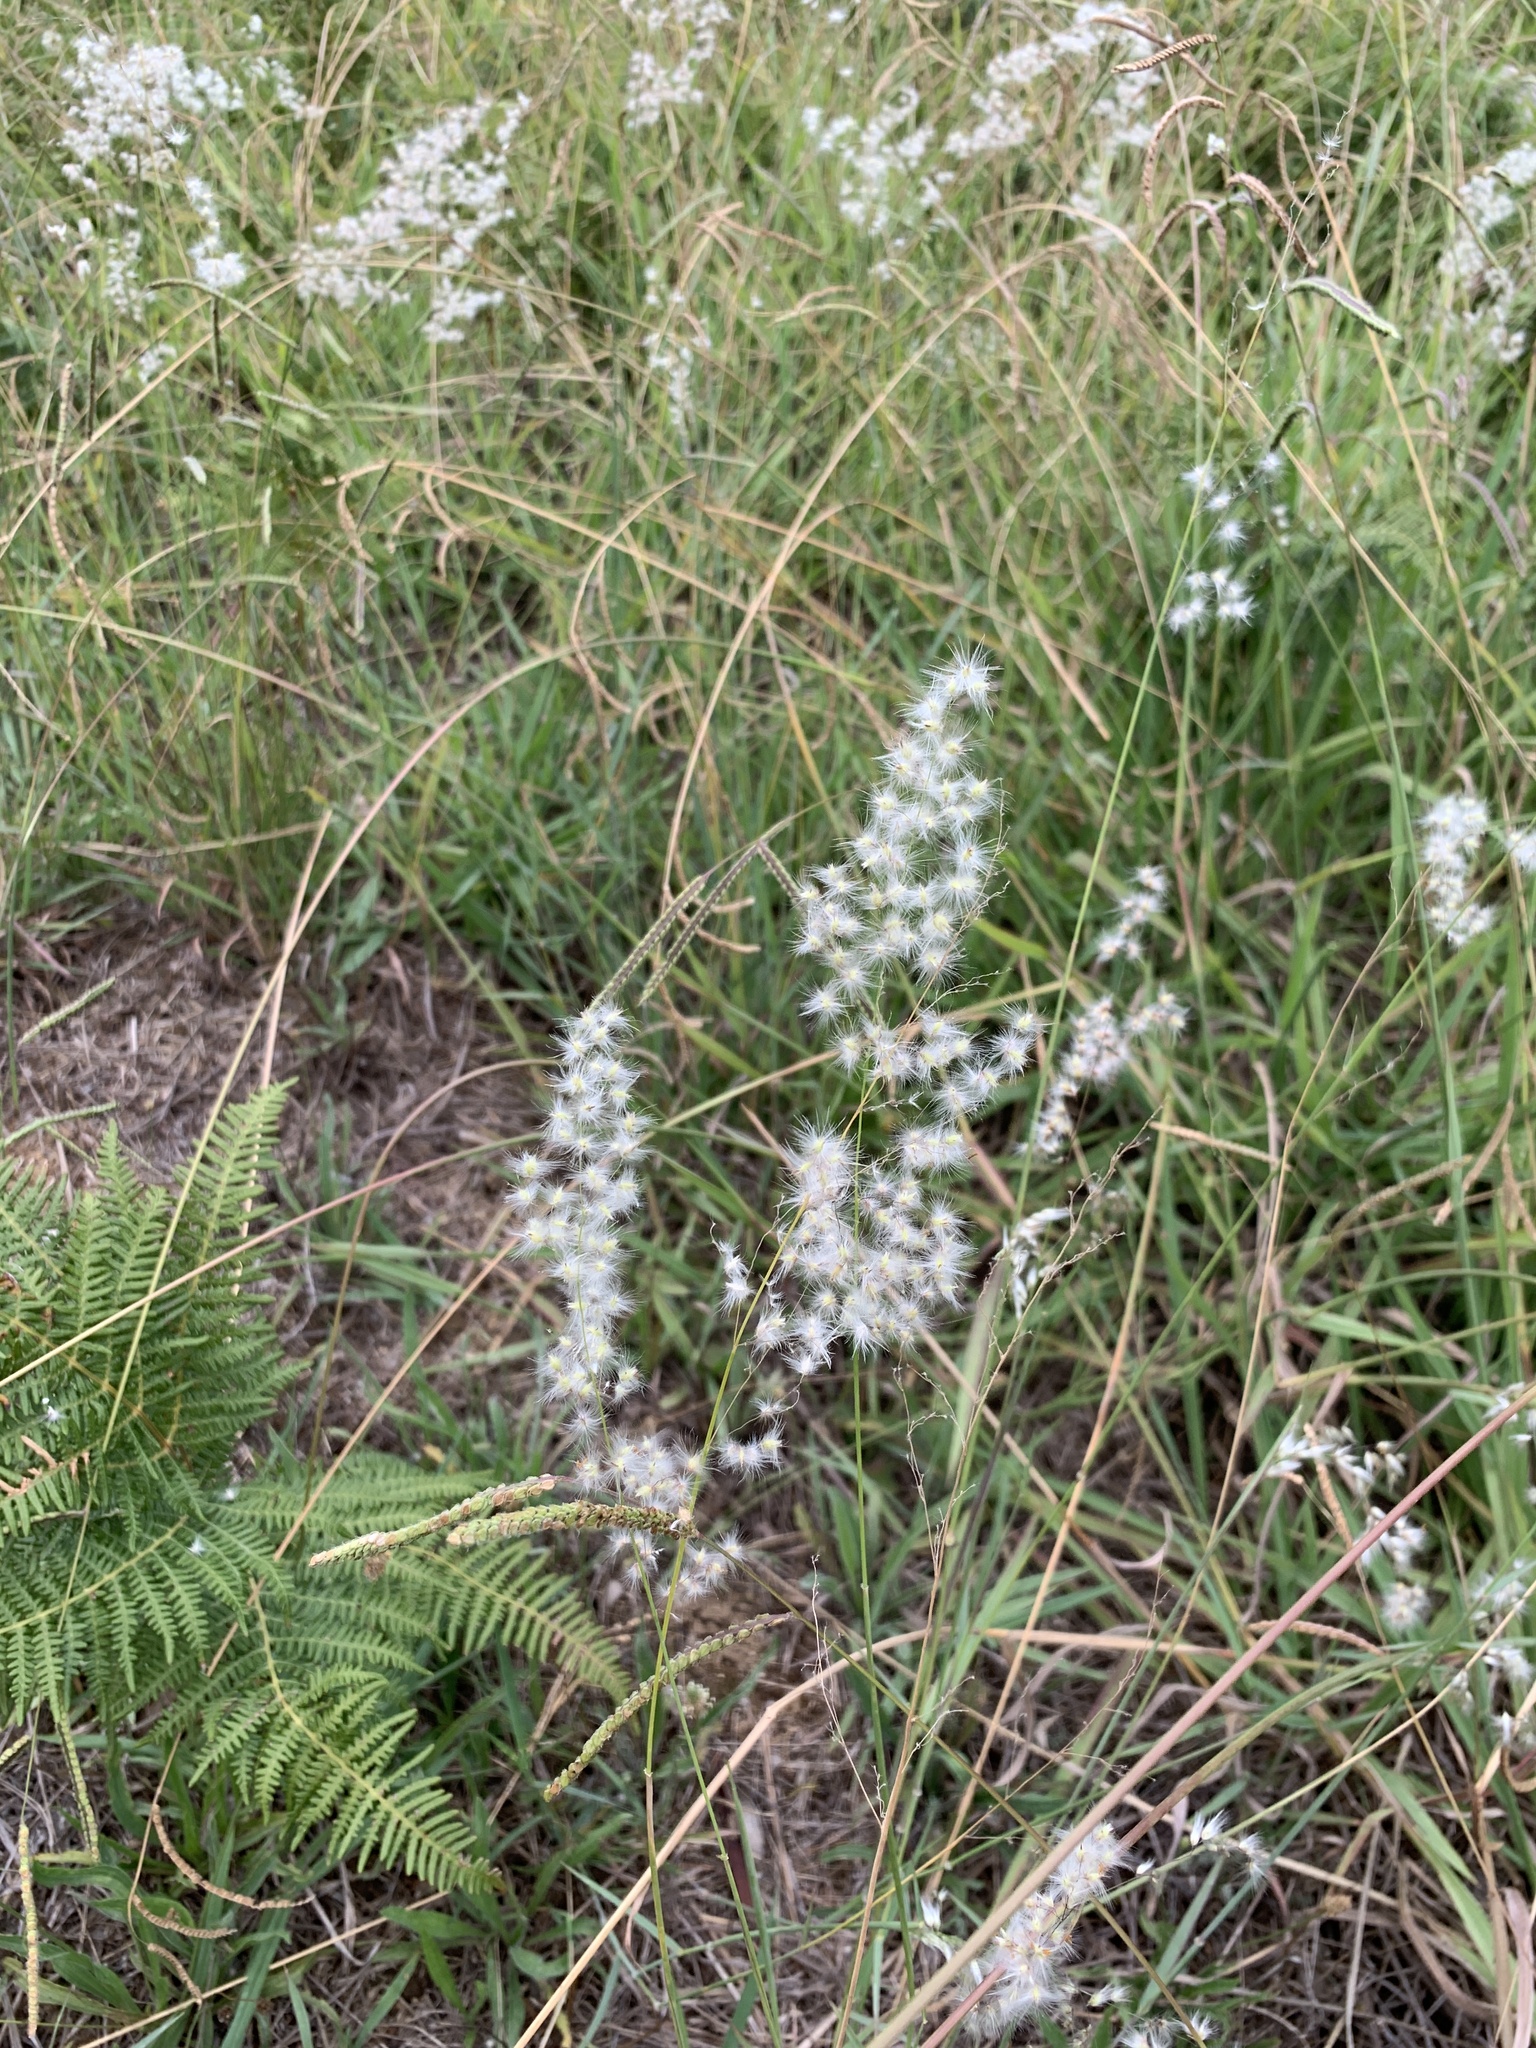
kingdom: Plantae
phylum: Tracheophyta
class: Liliopsida
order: Poales
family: Poaceae
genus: Melinis
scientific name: Melinis repens
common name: Rose natal grass
